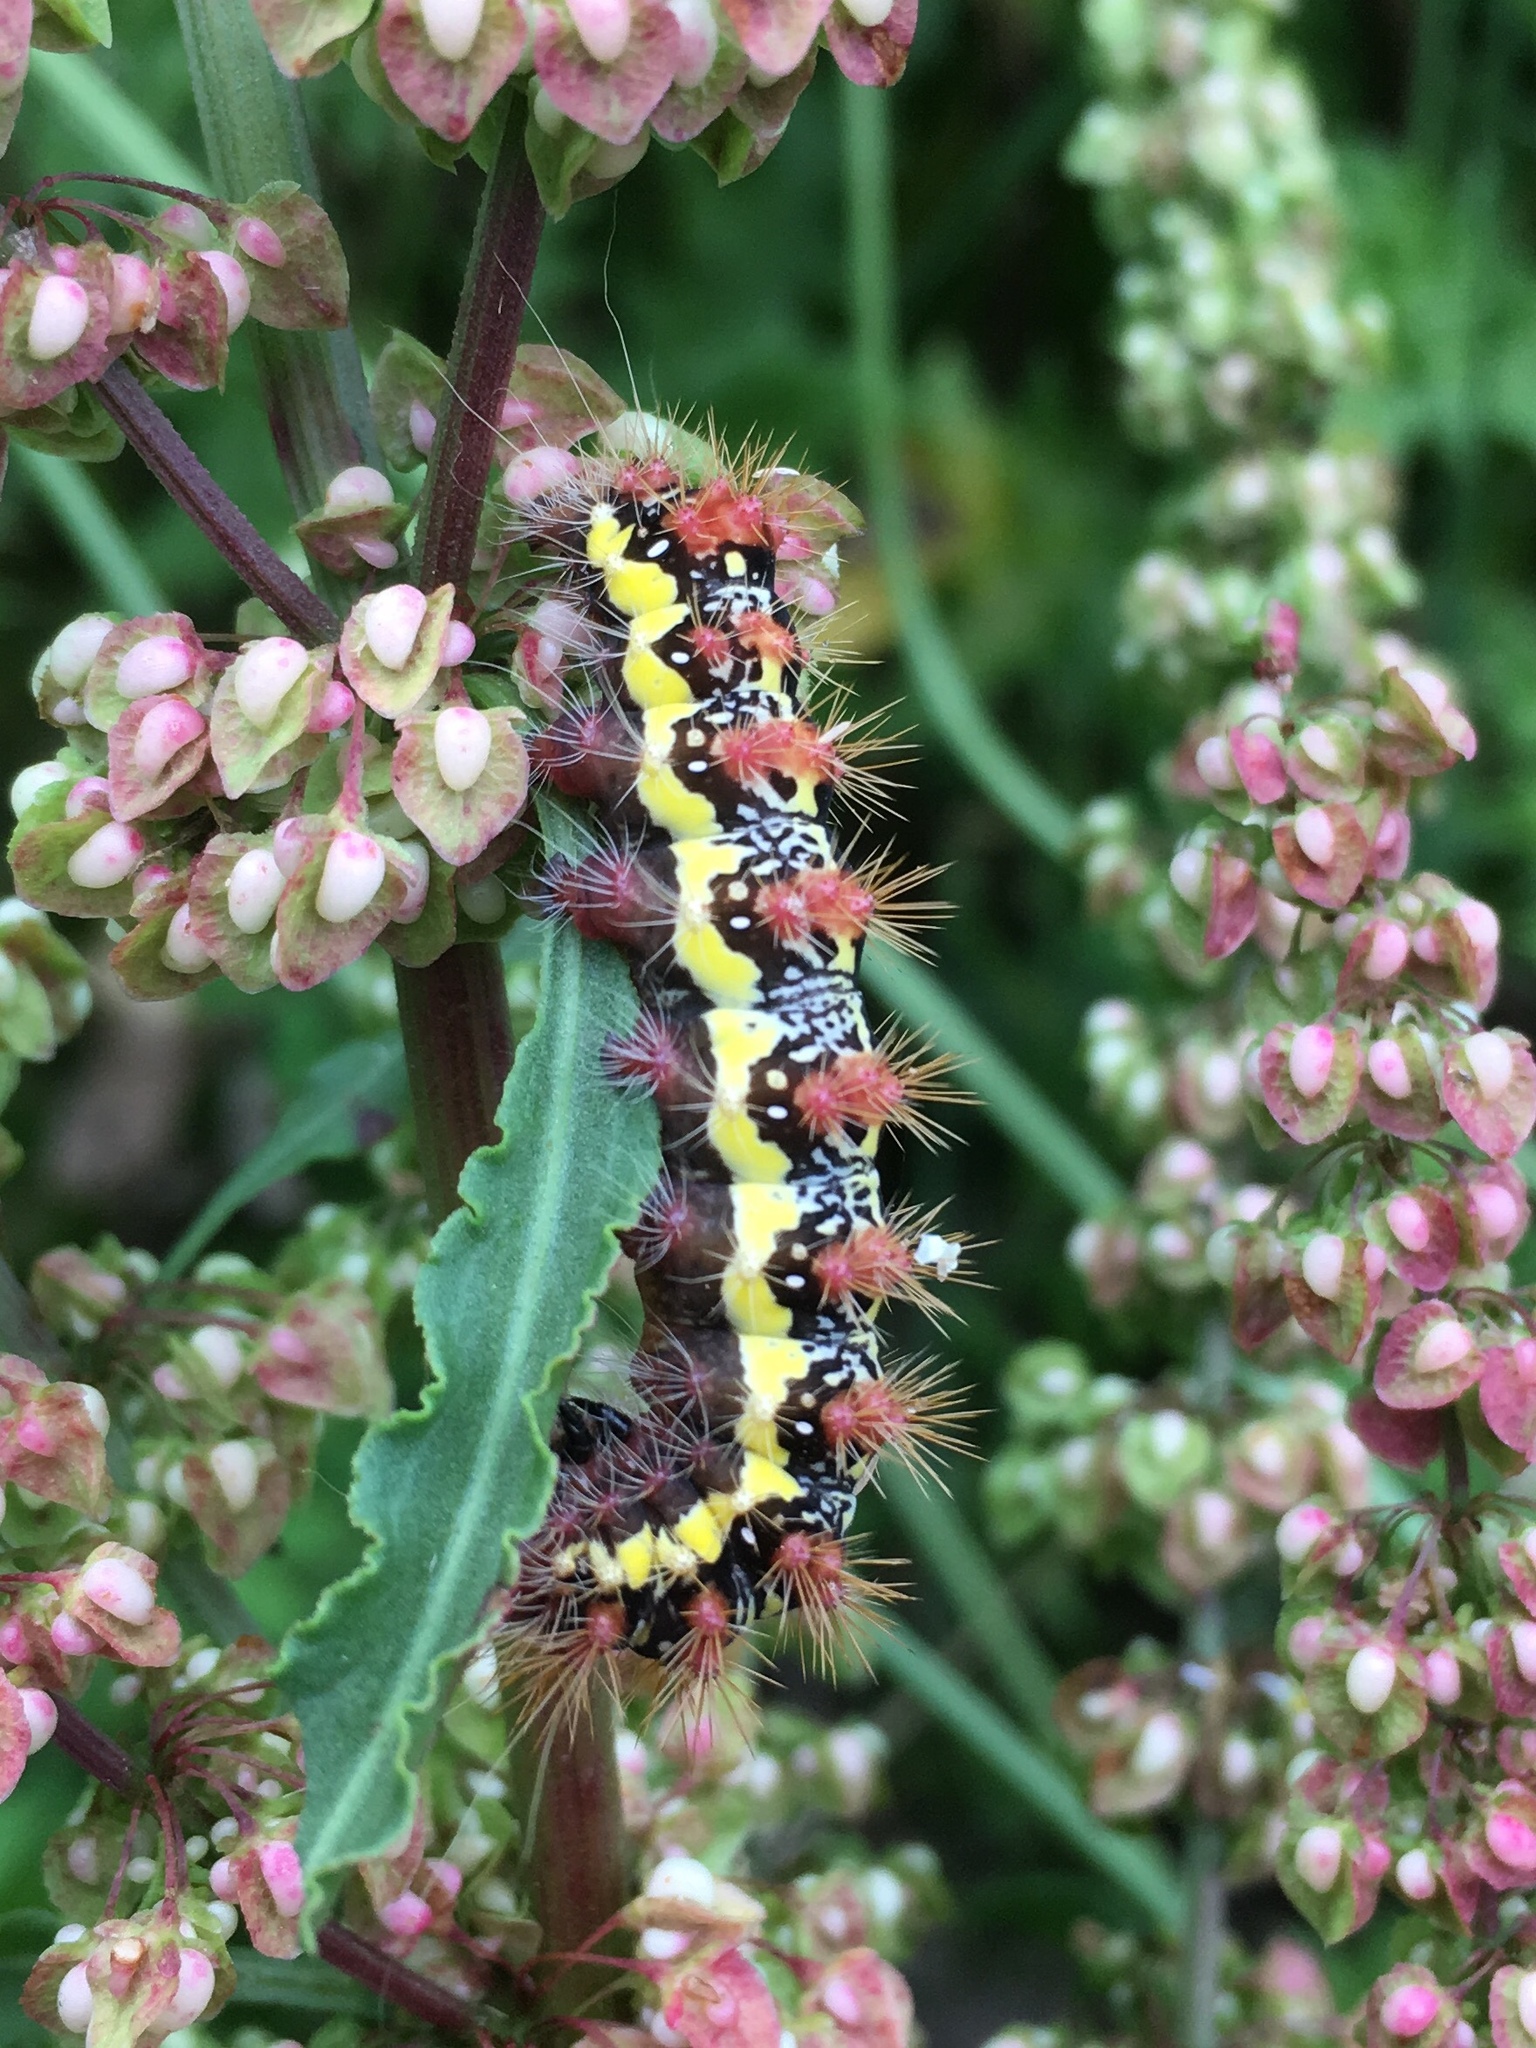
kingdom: Animalia
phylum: Arthropoda
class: Insecta
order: Lepidoptera
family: Noctuidae
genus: Acronicta
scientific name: Acronicta oblinita
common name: Smeared dagger
